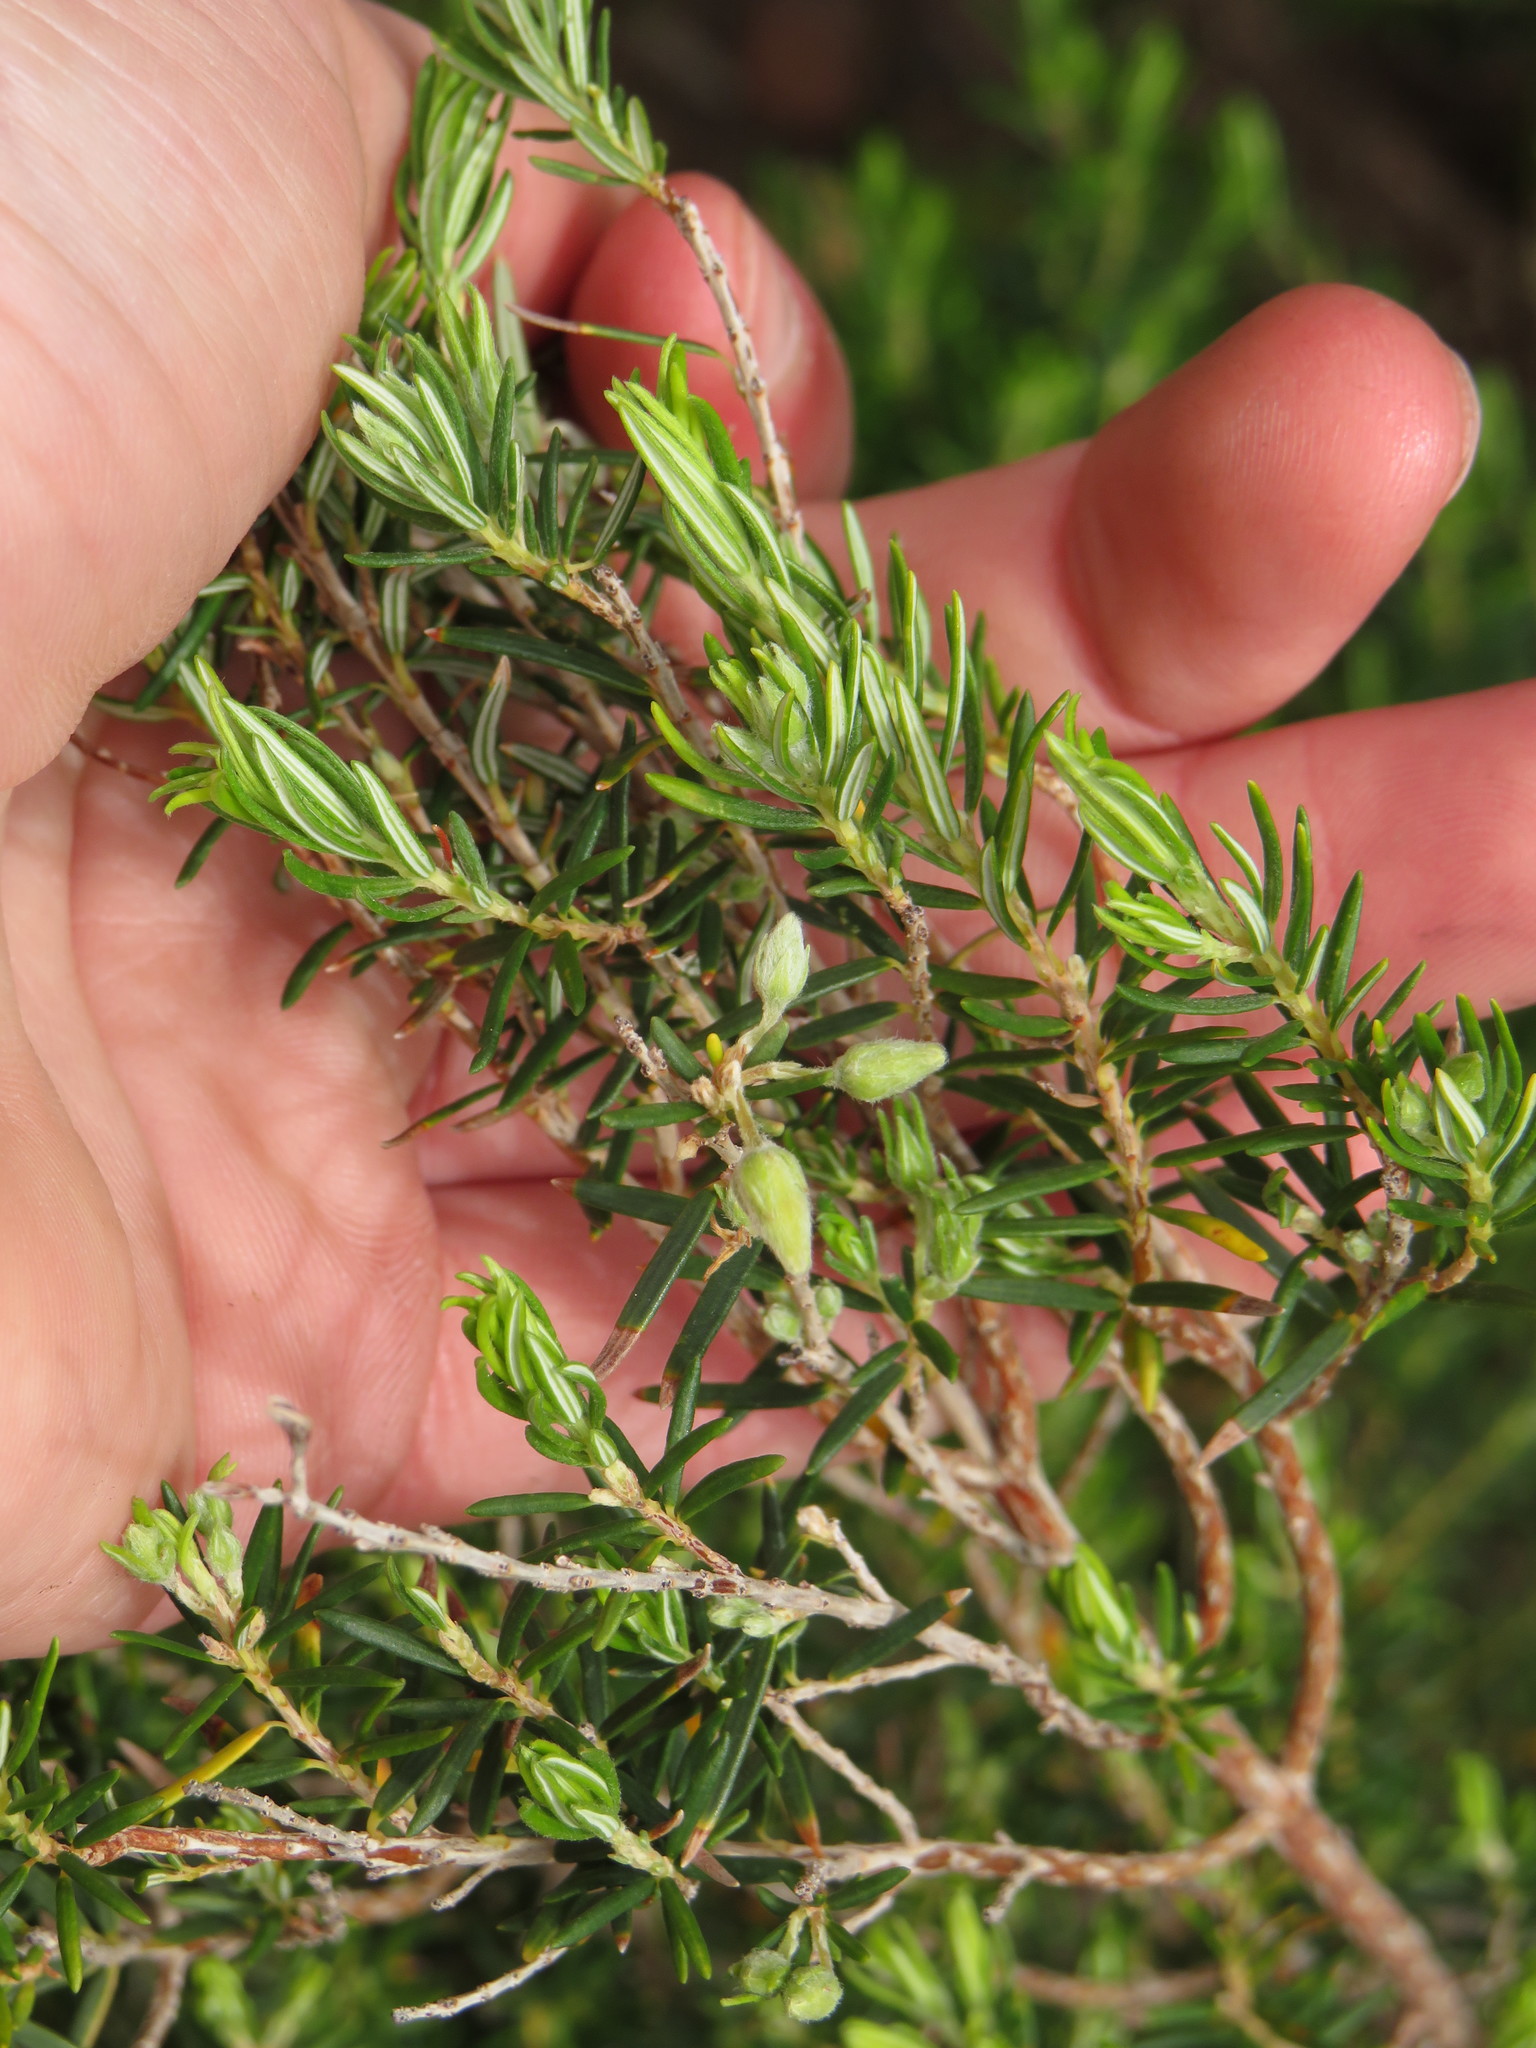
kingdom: Plantae
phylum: Tracheophyta
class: Magnoliopsida
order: Ericales
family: Ericaceae
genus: Erica
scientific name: Erica caffra
